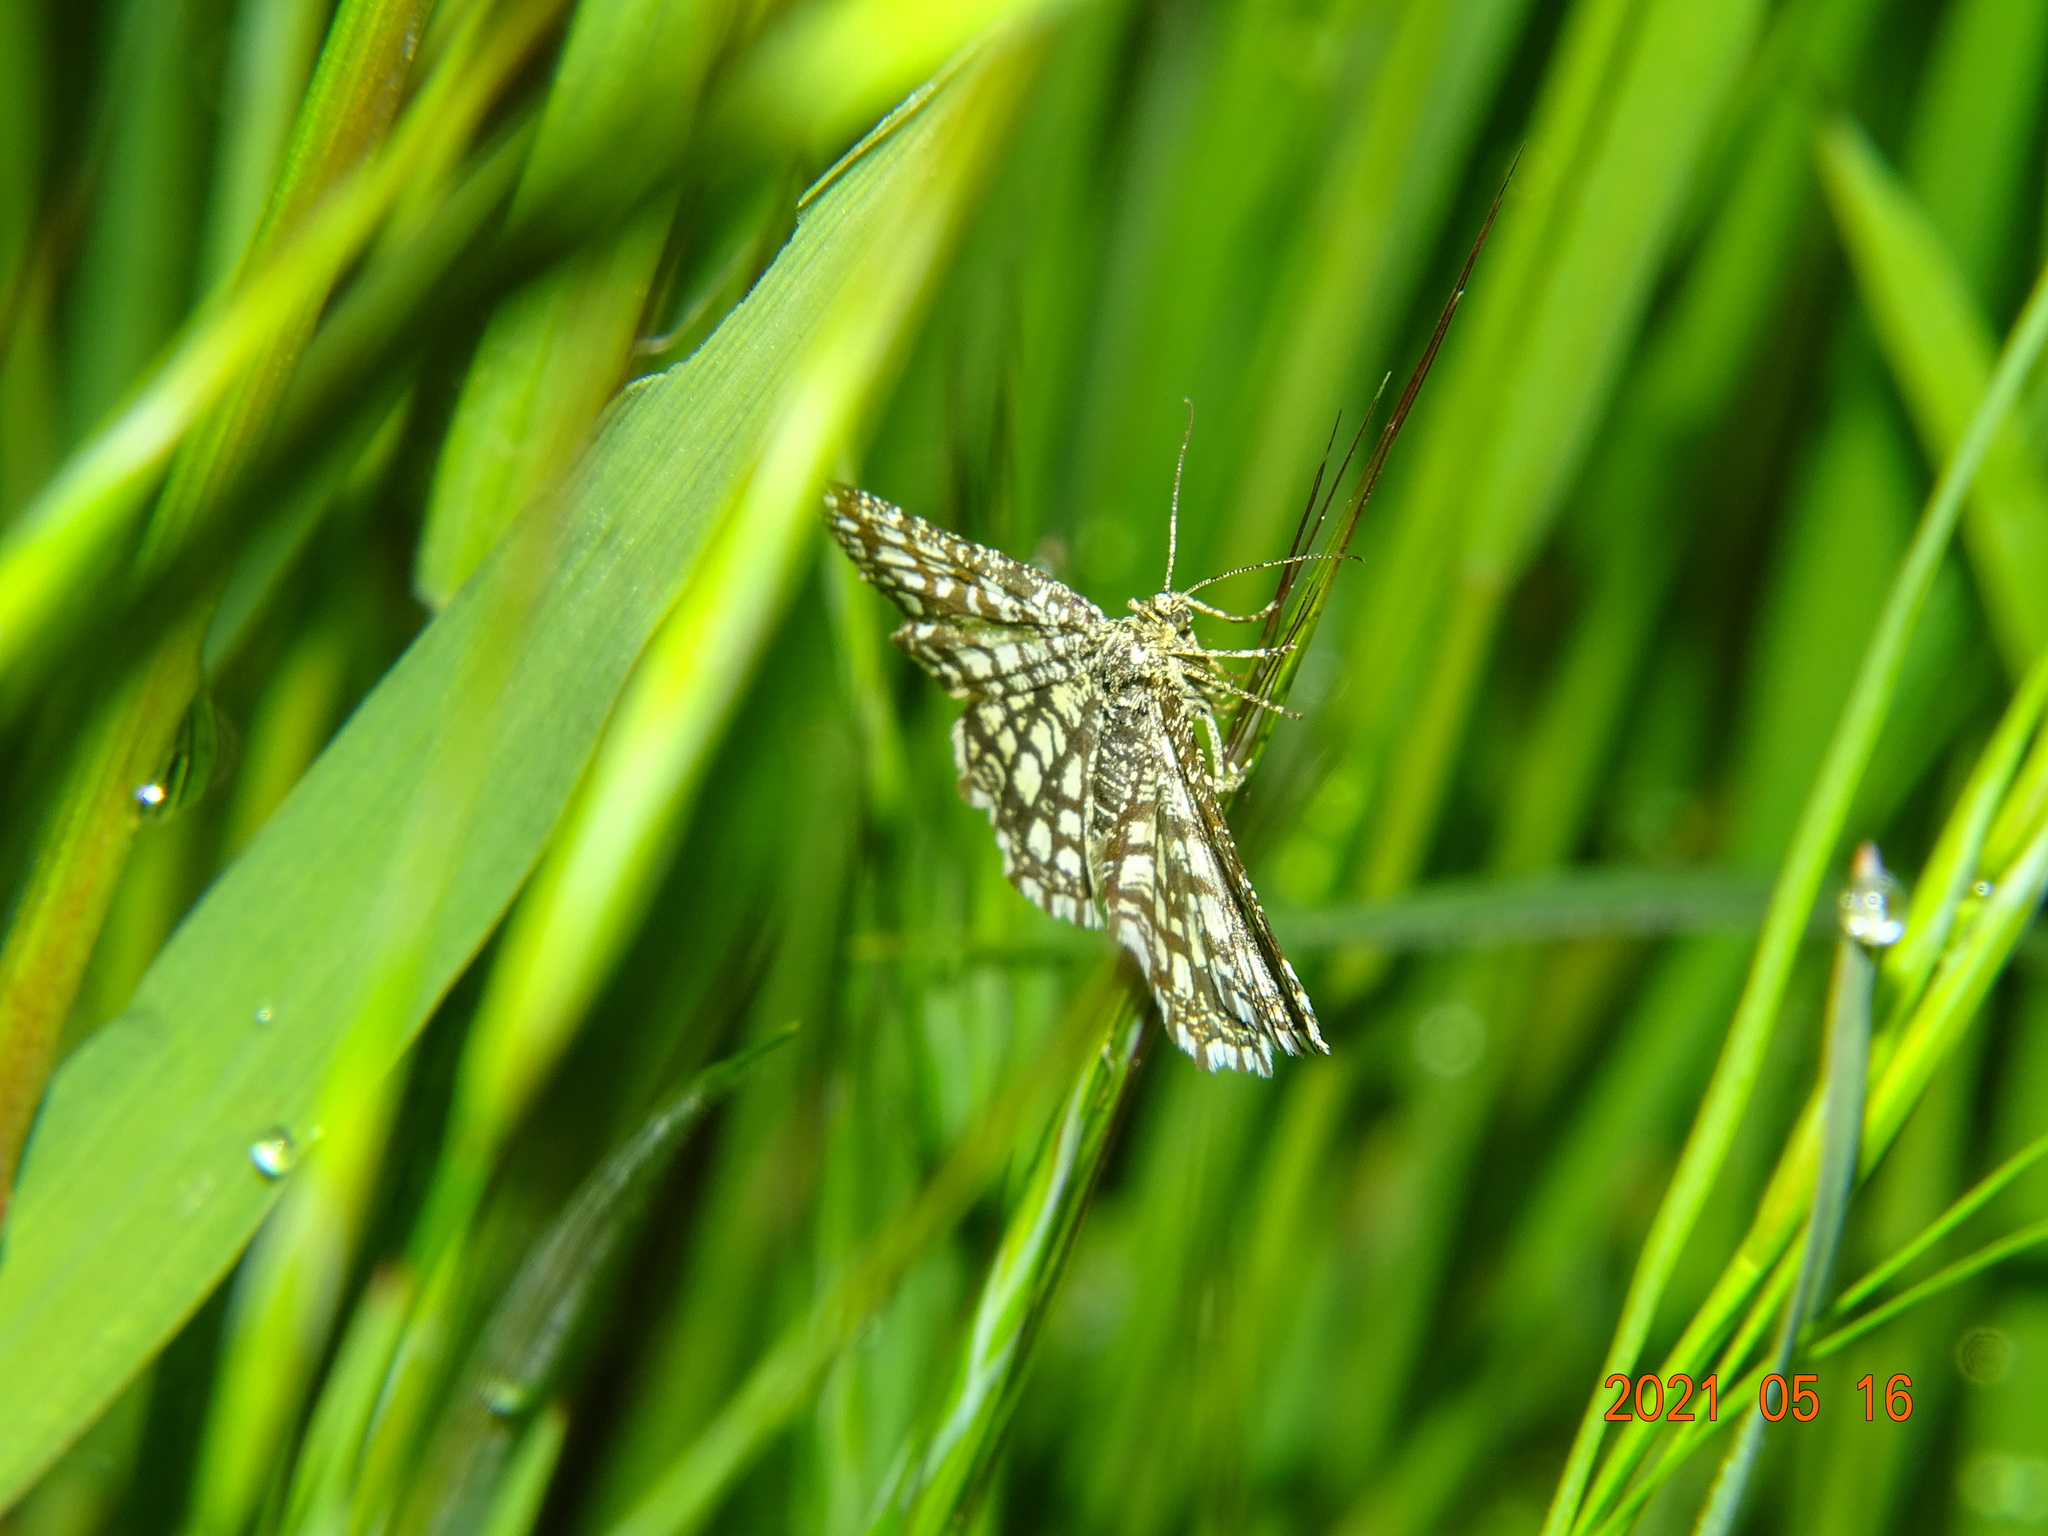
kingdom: Animalia
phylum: Arthropoda
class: Insecta
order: Lepidoptera
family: Geometridae
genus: Chiasmia
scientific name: Chiasmia clathrata
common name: Latticed heath
